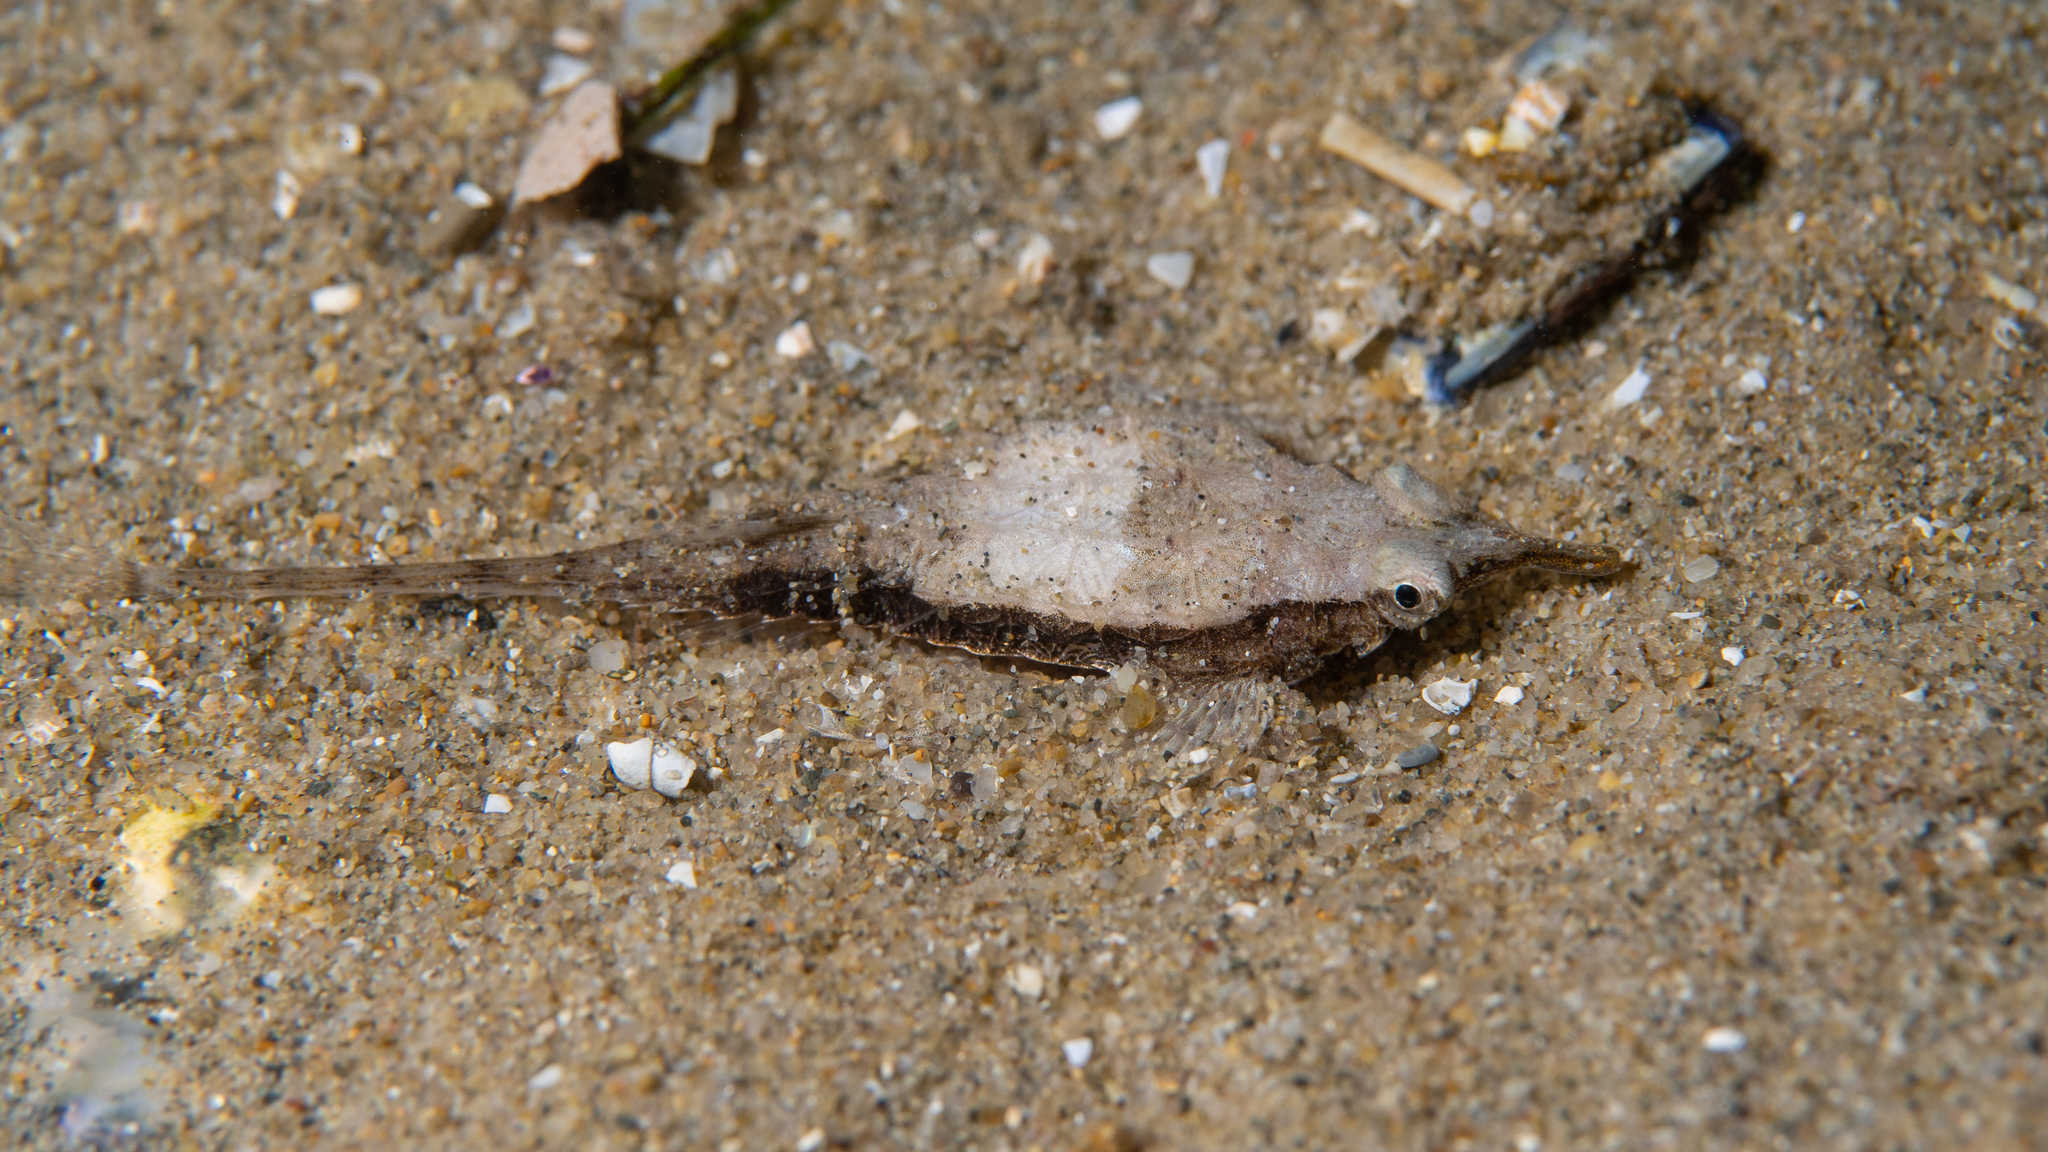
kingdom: Animalia
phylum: Chordata
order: Gasterosteiformes
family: Pegasidae
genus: Pegasus
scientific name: Pegasus lancifer
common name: Dragonfish
